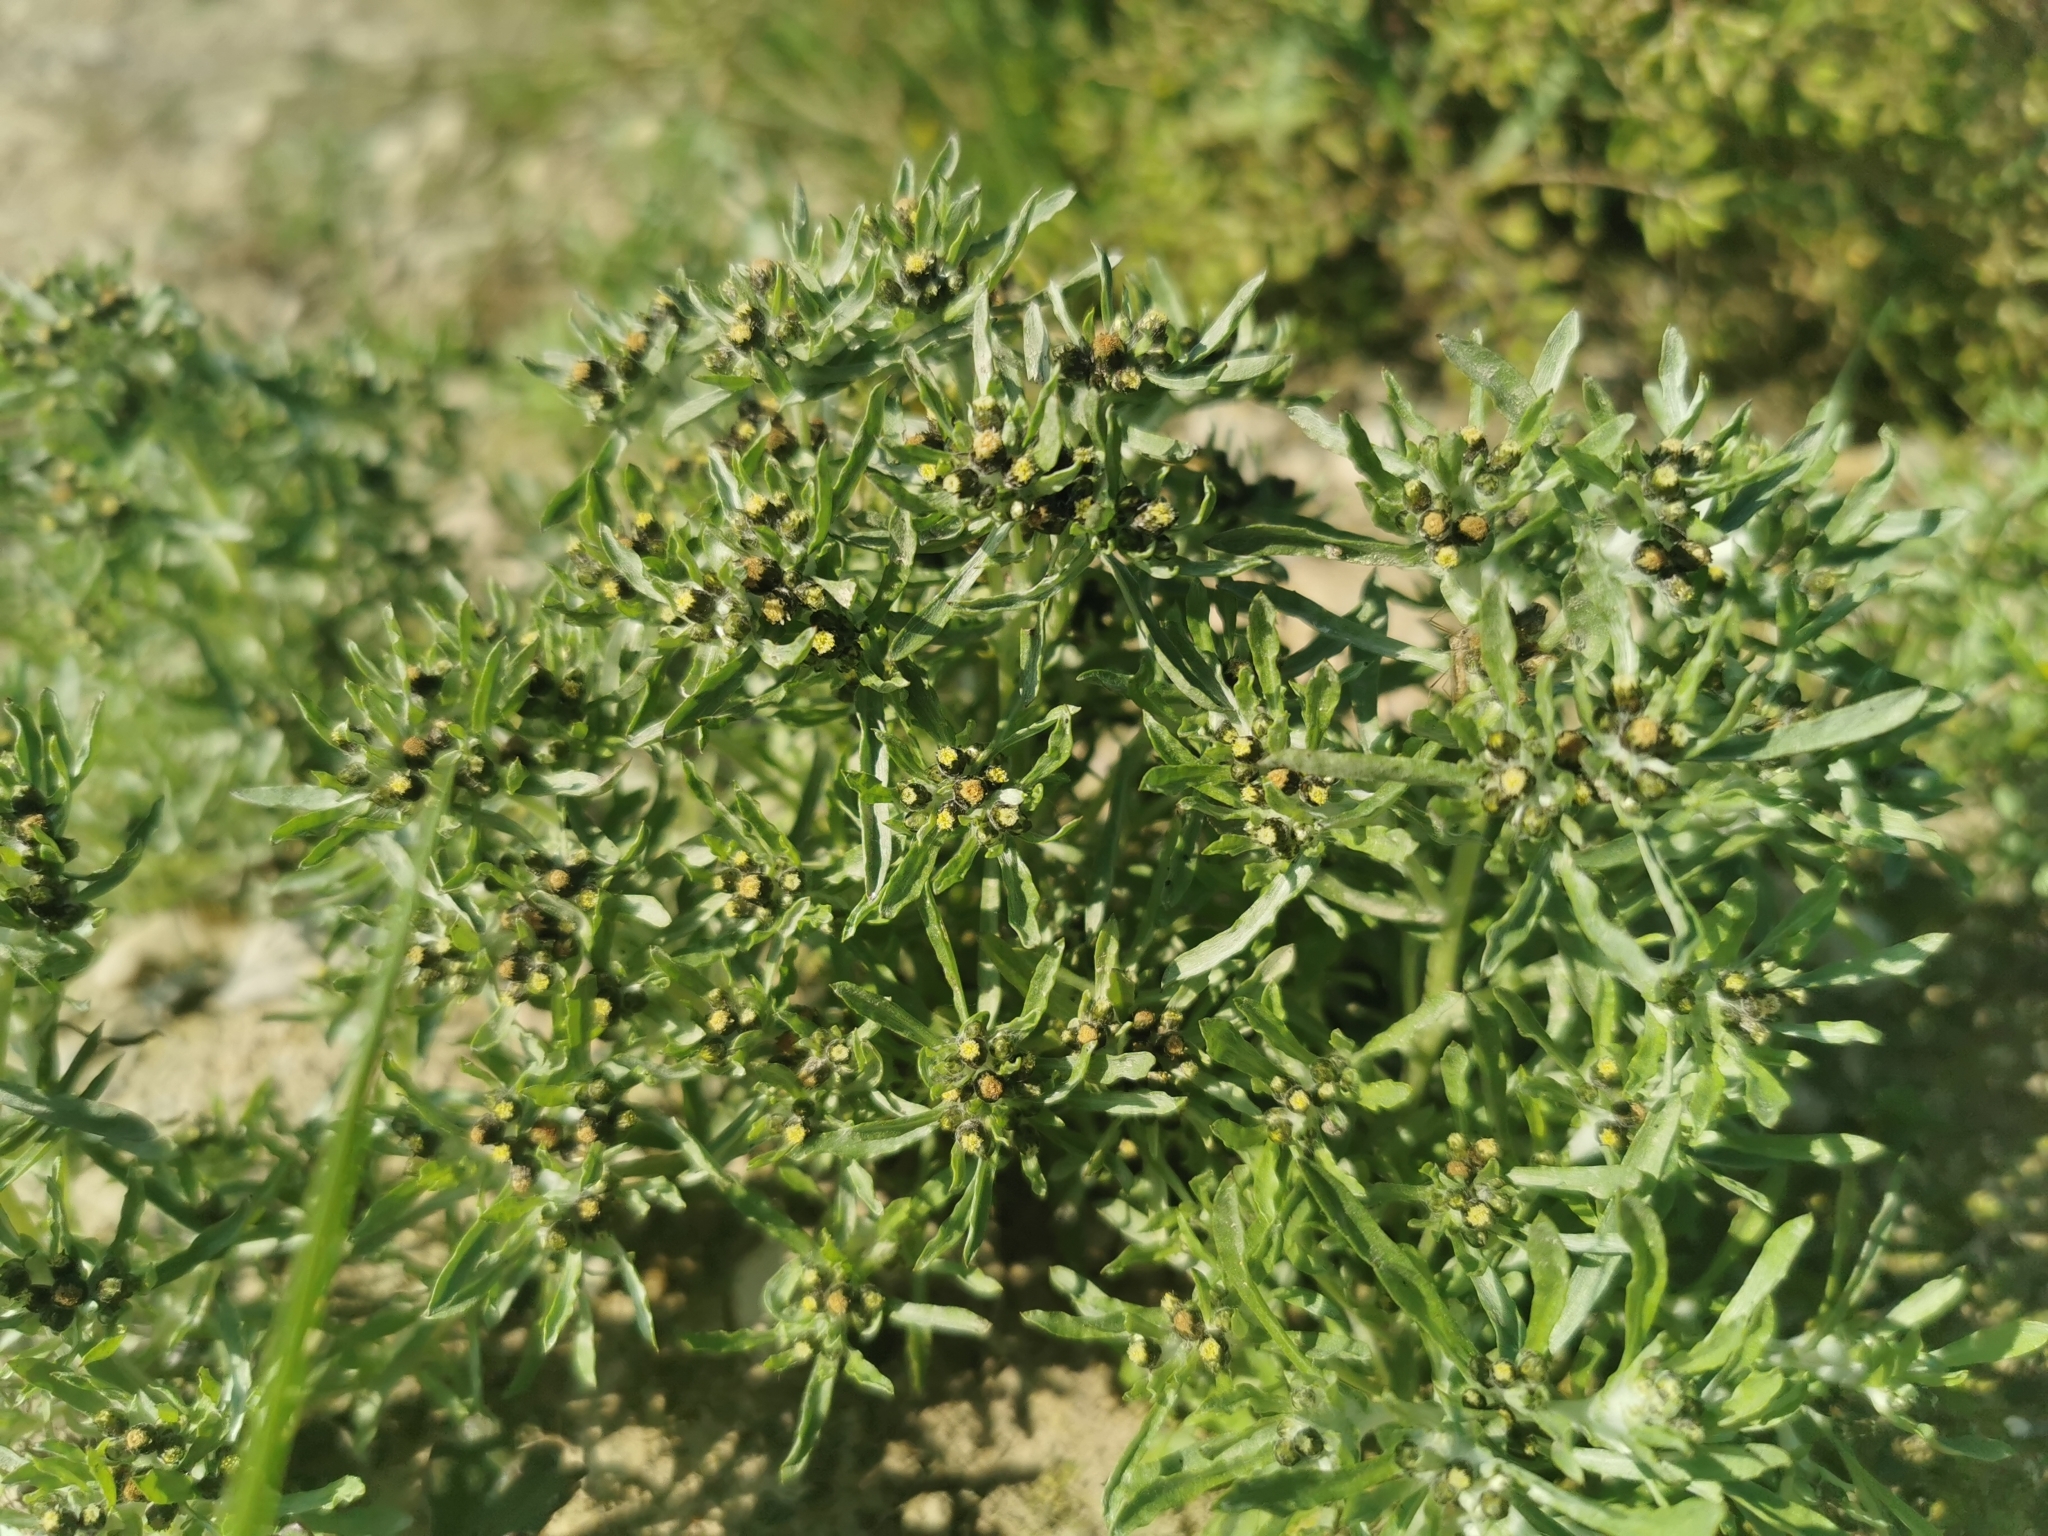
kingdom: Plantae
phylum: Tracheophyta
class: Magnoliopsida
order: Asterales
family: Asteraceae
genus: Gnaphalium
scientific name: Gnaphalium uliginosum
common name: Marsh cudweed
